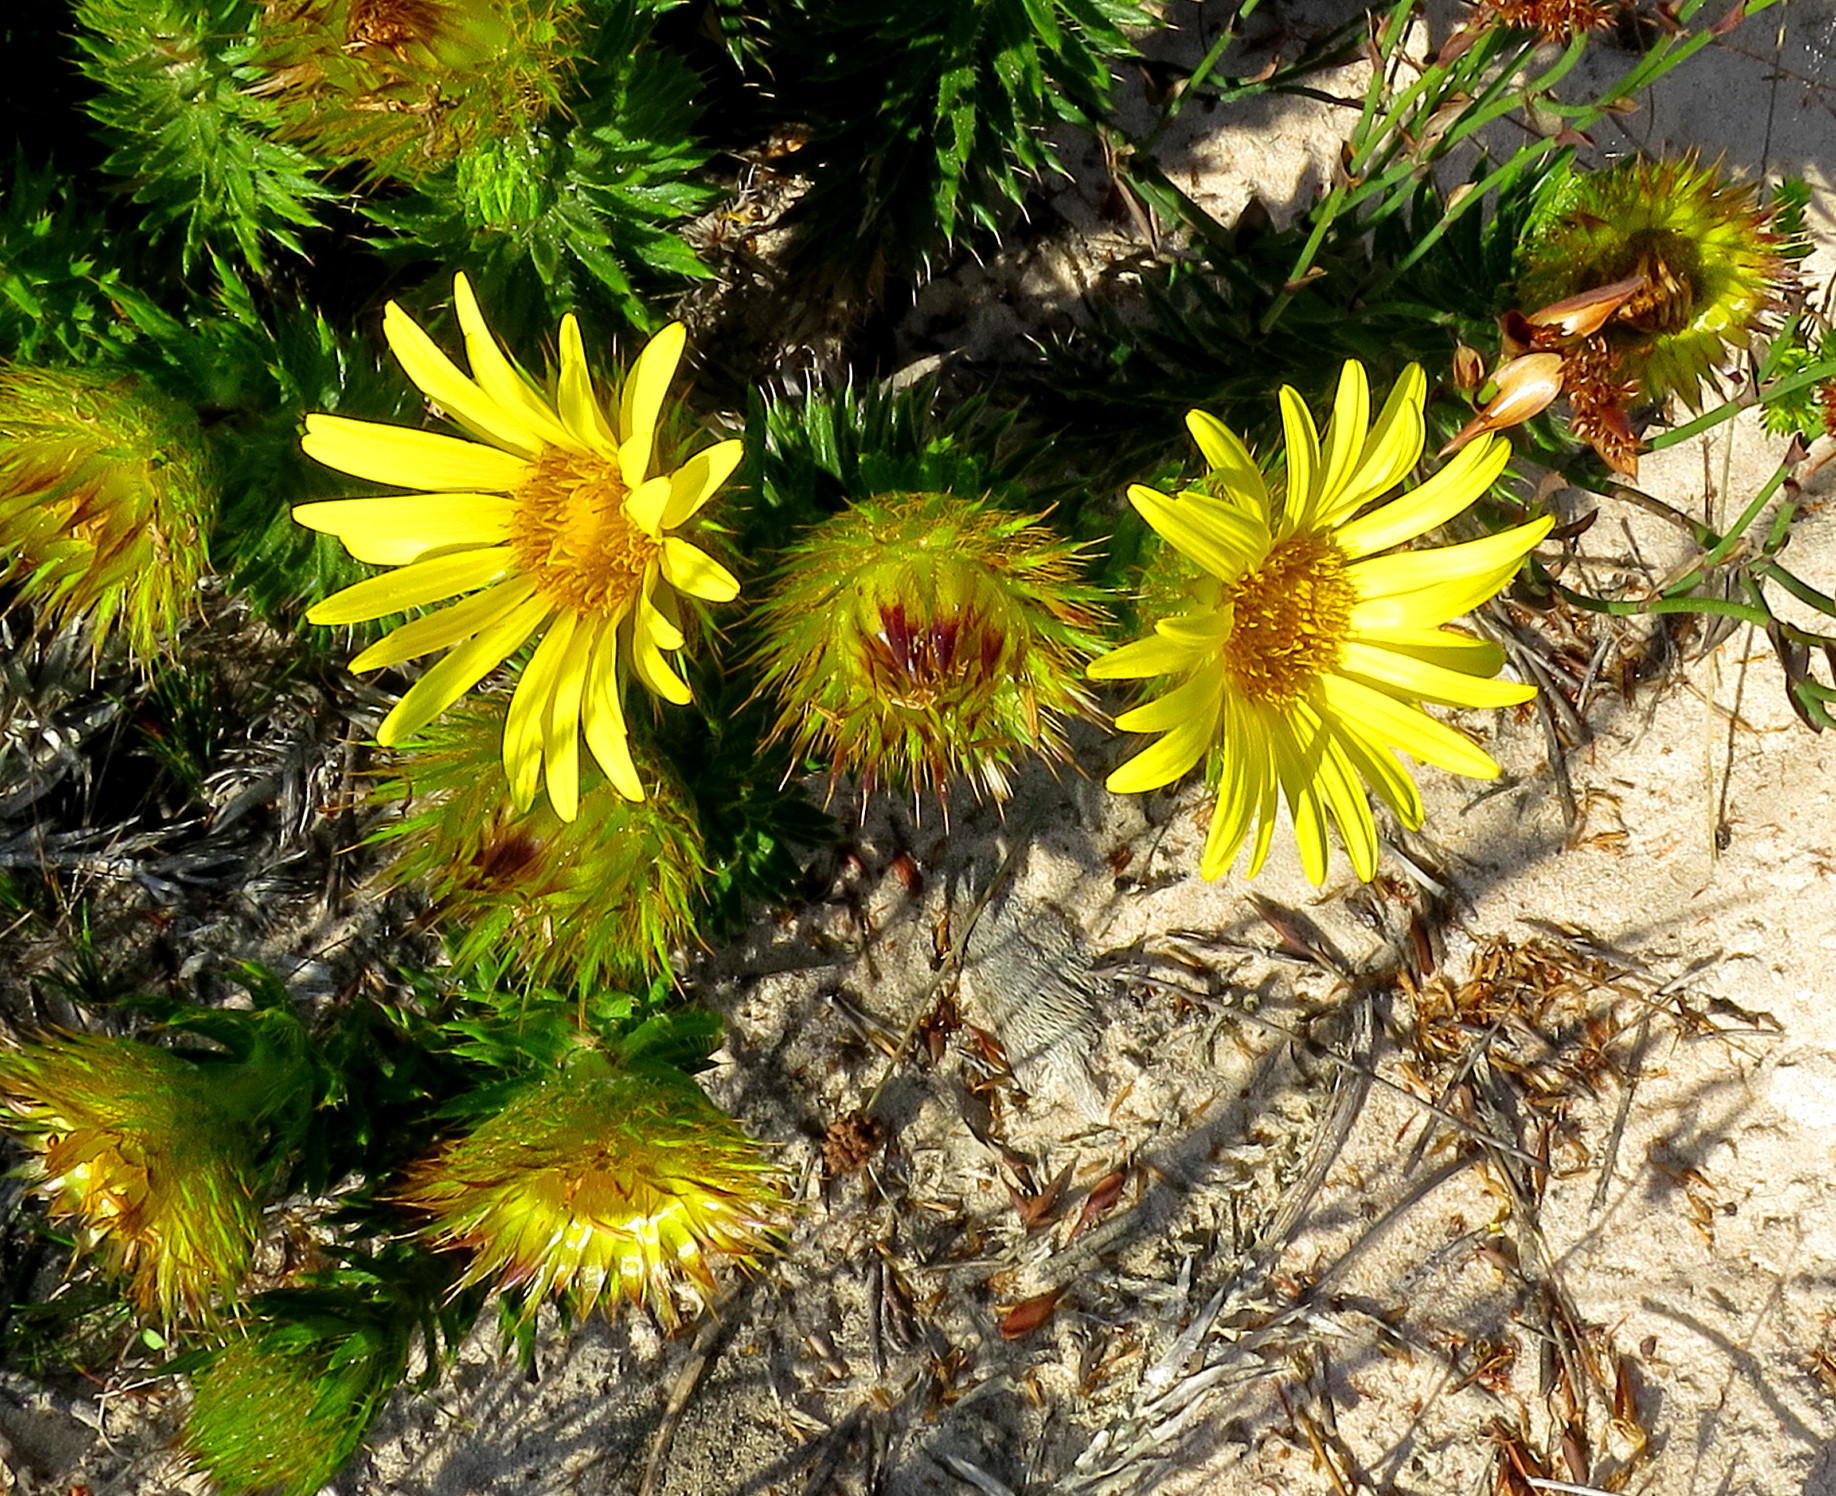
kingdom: Plantae
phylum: Tracheophyta
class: Magnoliopsida
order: Asterales
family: Asteraceae
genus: Cullumia
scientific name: Cullumia carlinoides
